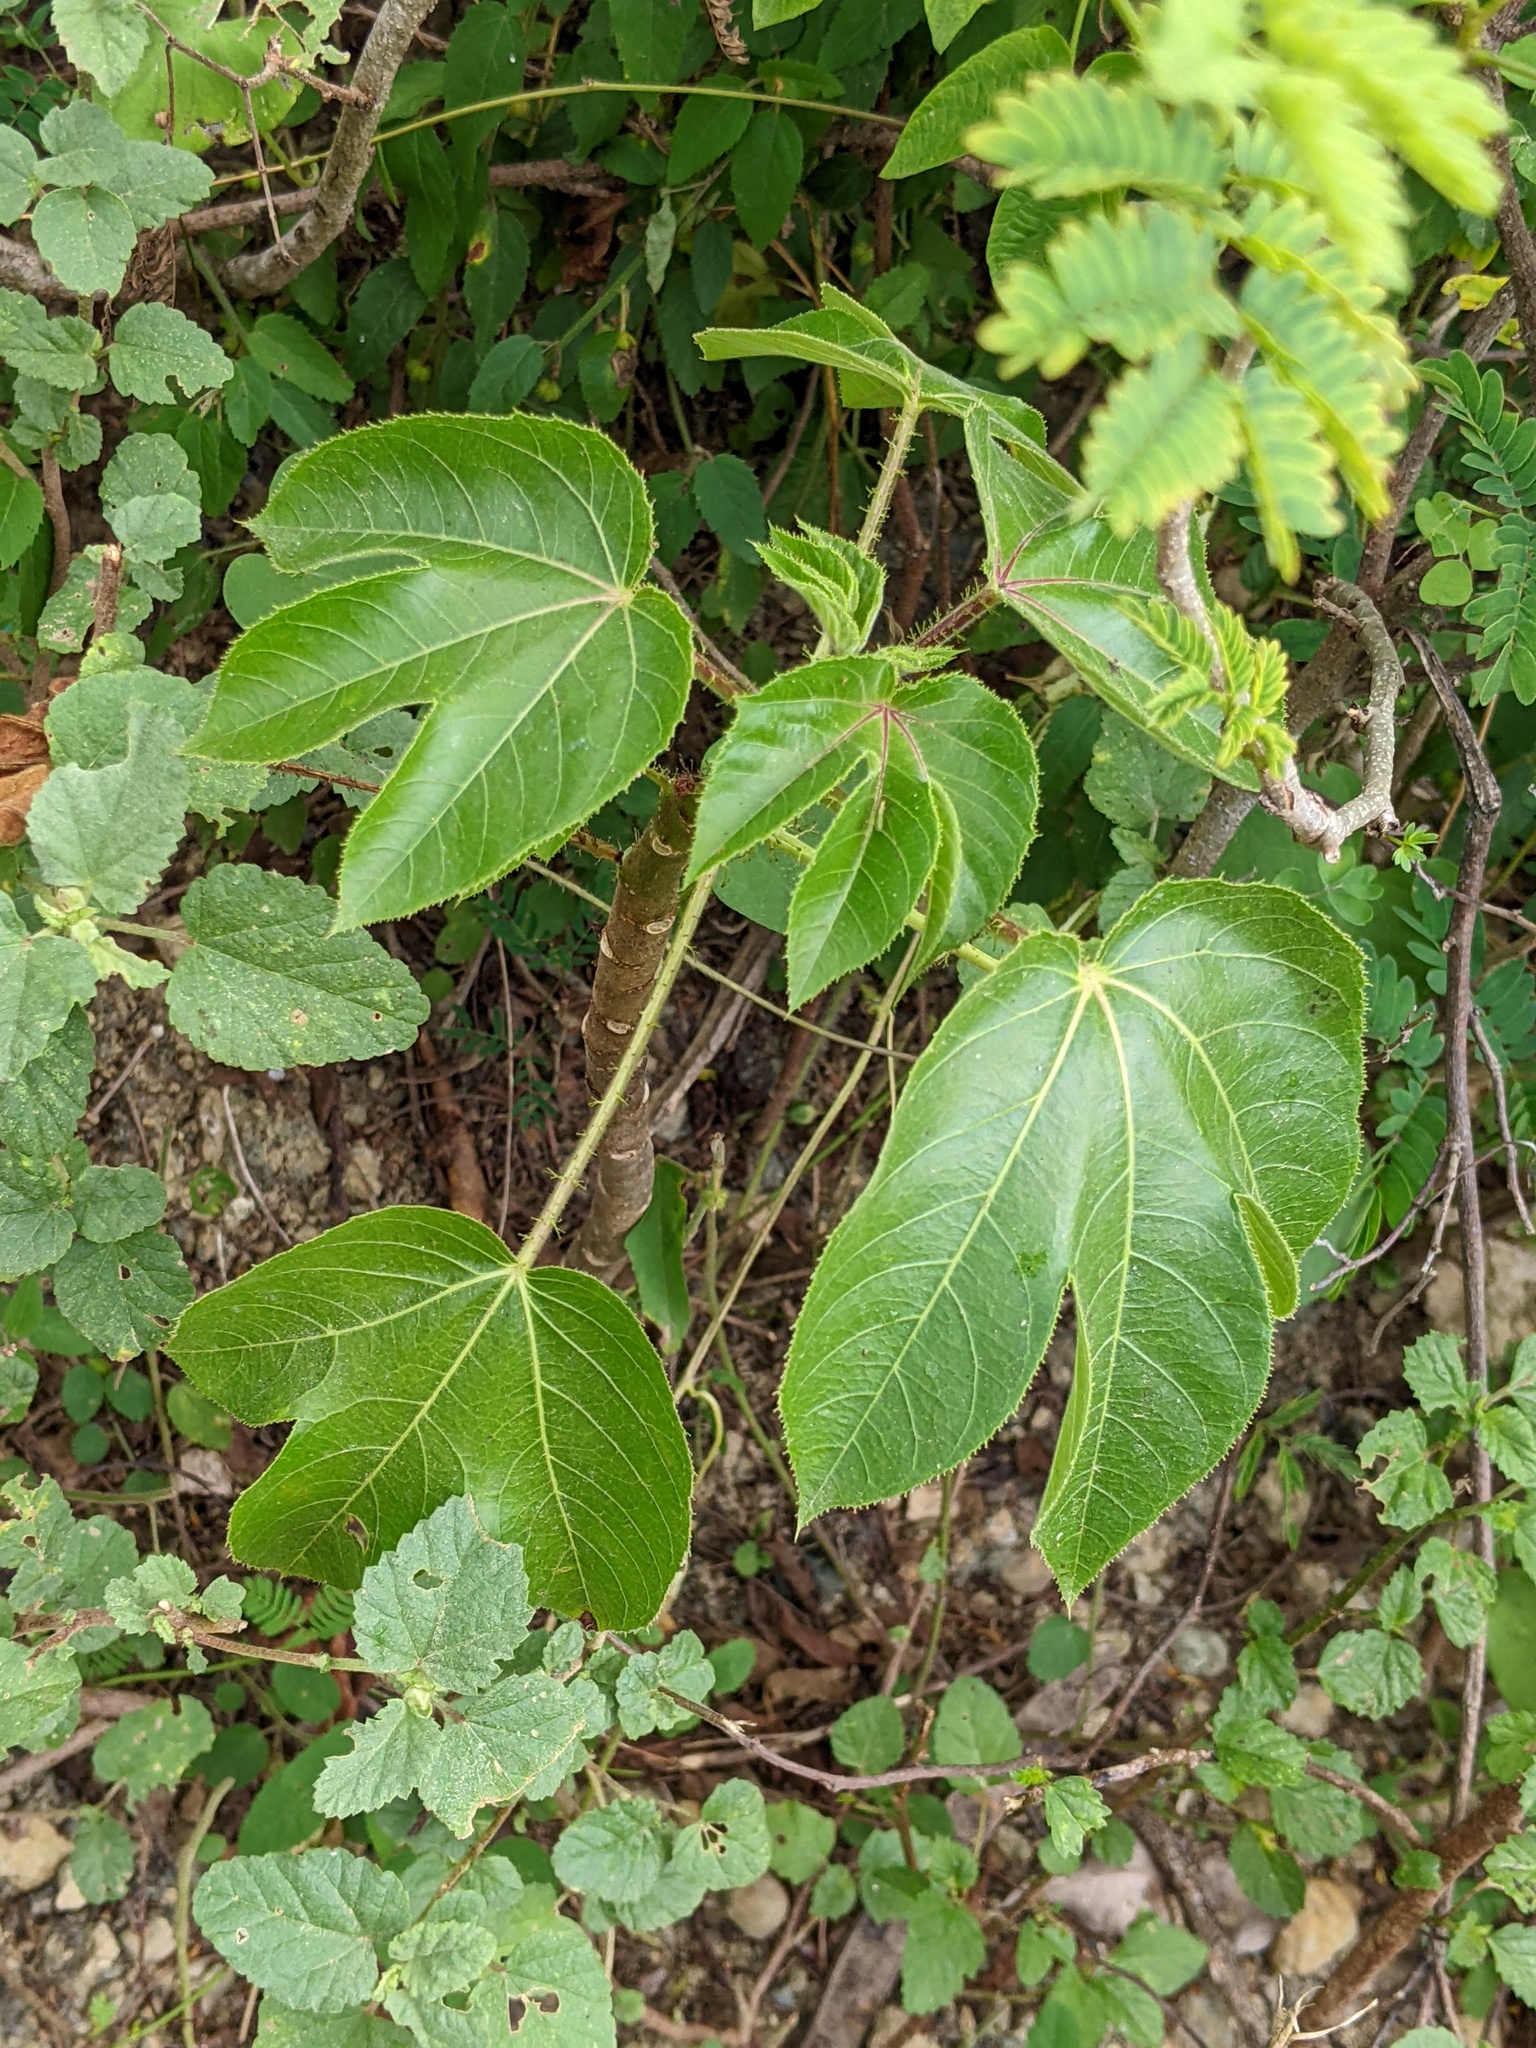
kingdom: Plantae
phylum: Tracheophyta
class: Magnoliopsida
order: Malpighiales
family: Euphorbiaceae
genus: Jatropha
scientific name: Jatropha gossypiifolia
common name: Bellyache bush
